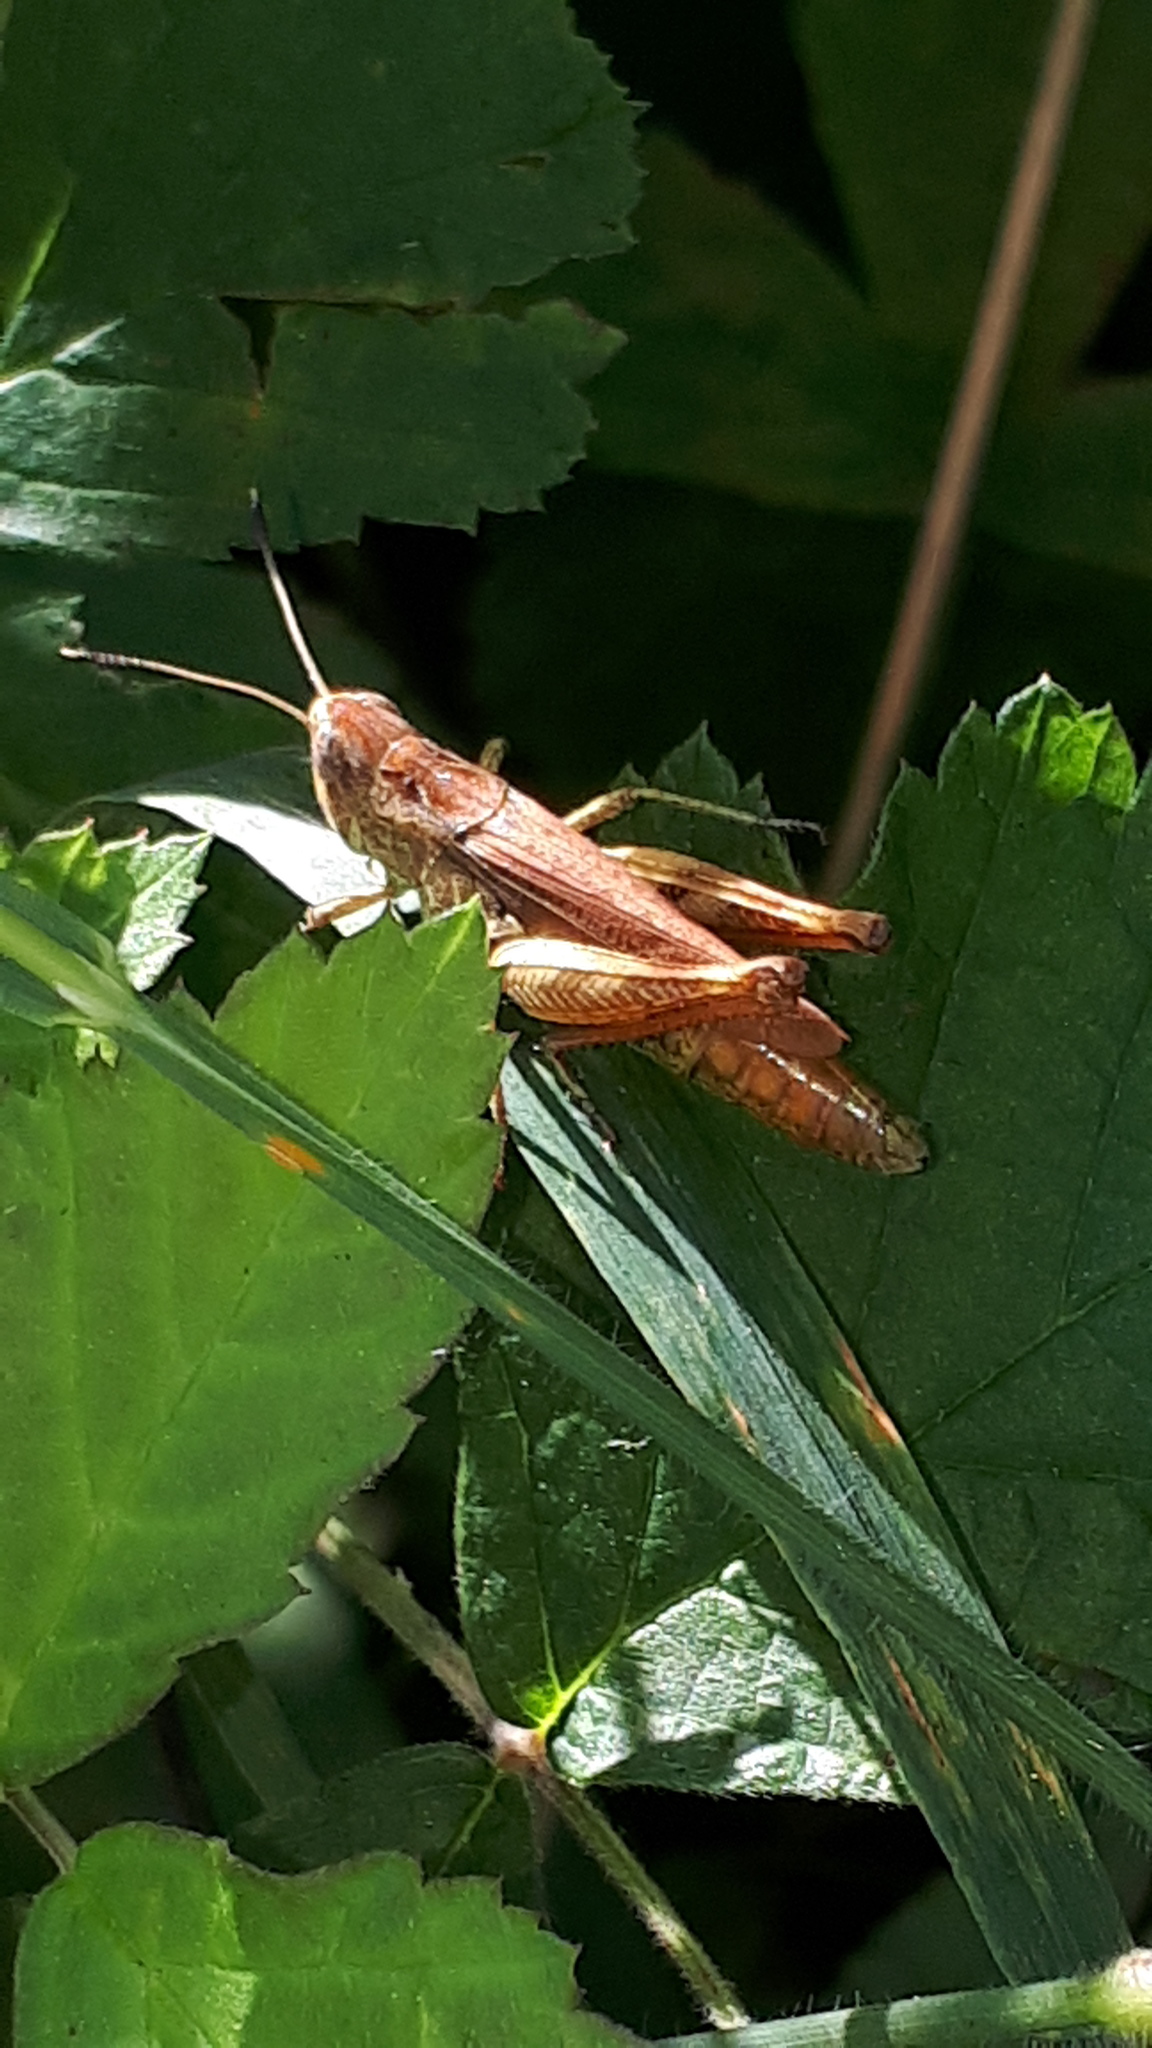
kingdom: Animalia
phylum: Arthropoda
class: Insecta
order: Orthoptera
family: Acrididae
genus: Gomphocerippus
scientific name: Gomphocerippus rufus
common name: Rufous grasshopper
